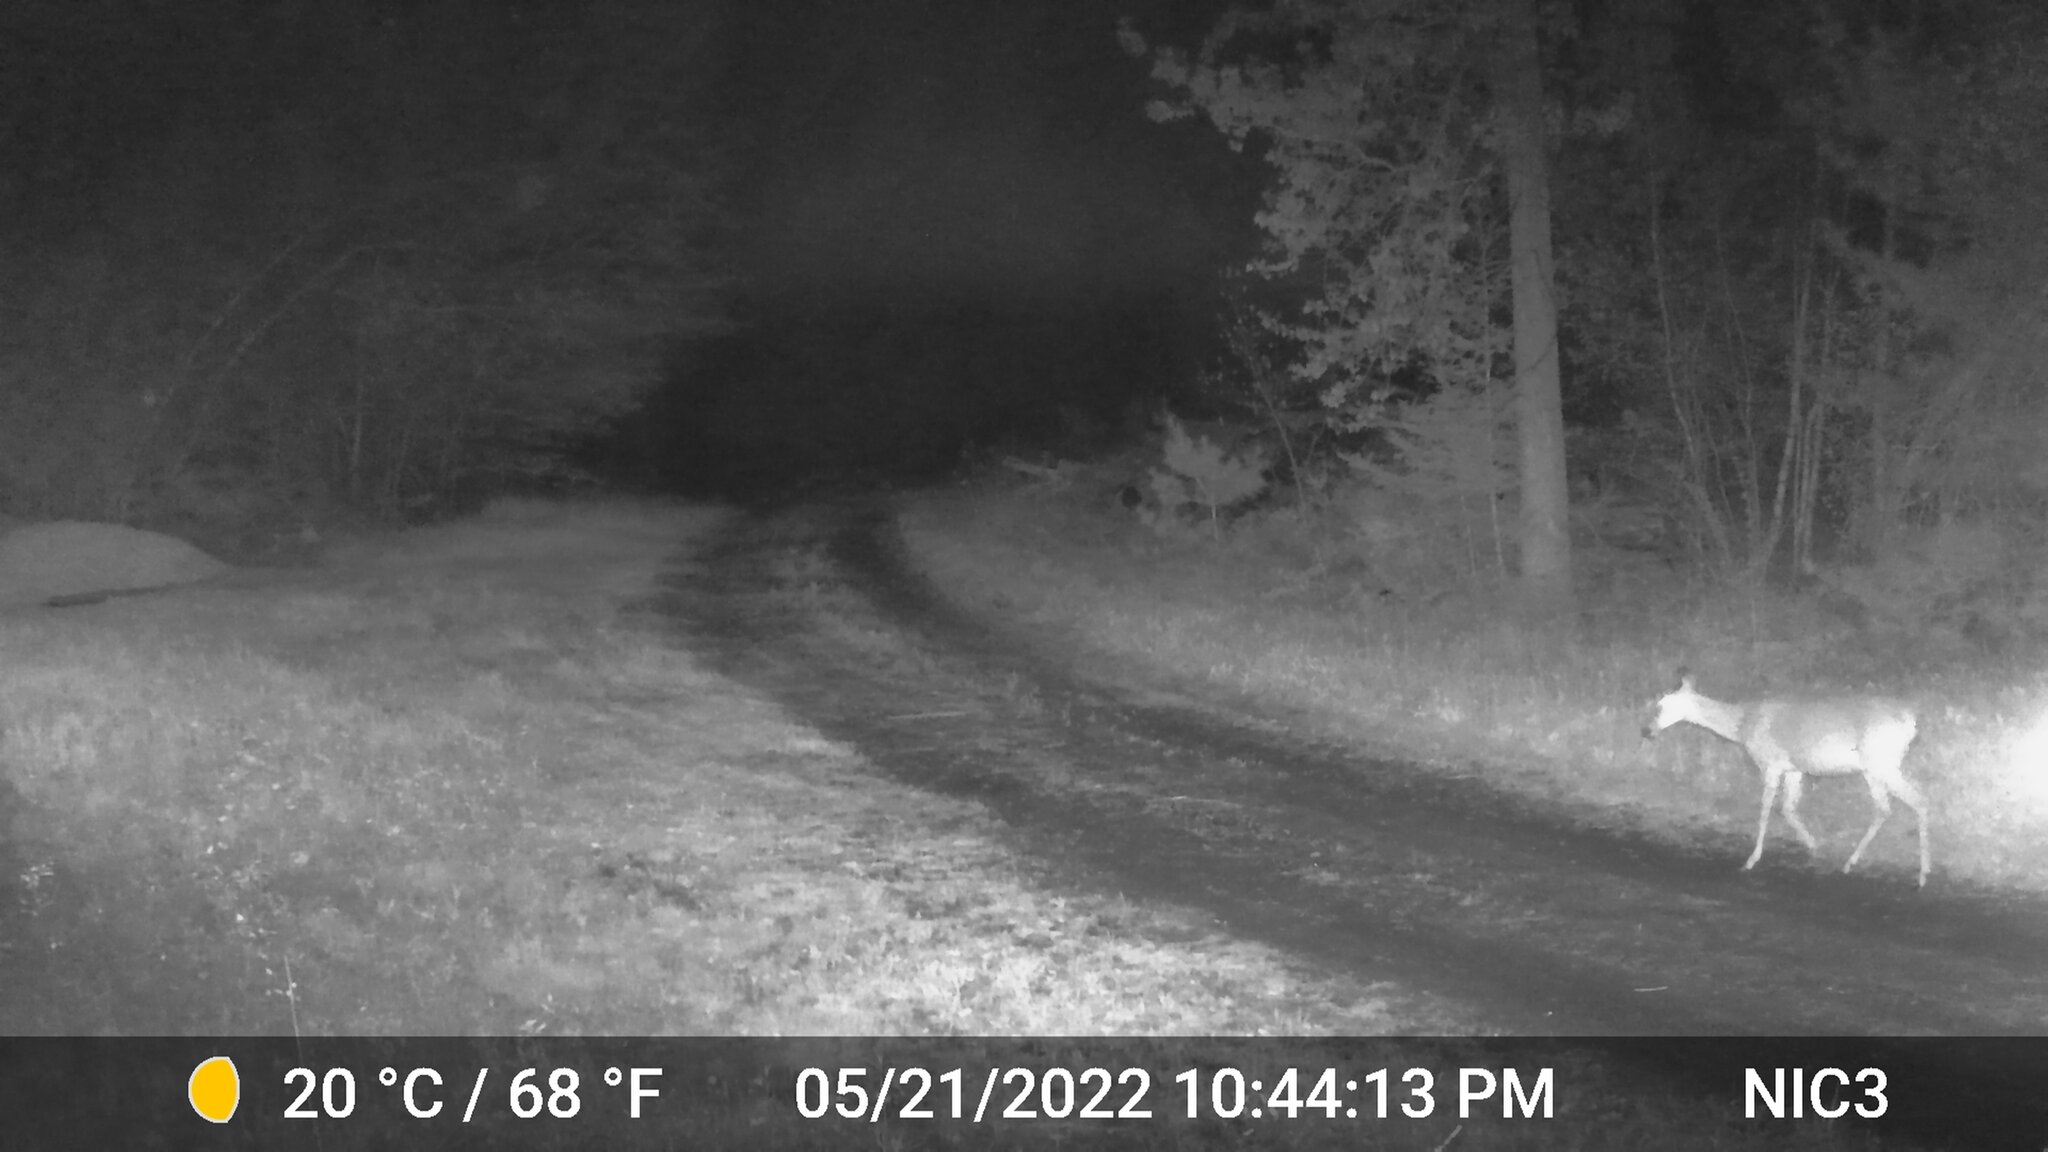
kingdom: Animalia
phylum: Chordata
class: Mammalia
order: Artiodactyla
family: Cervidae
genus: Odocoileus
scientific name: Odocoileus virginianus
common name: White-tailed deer
